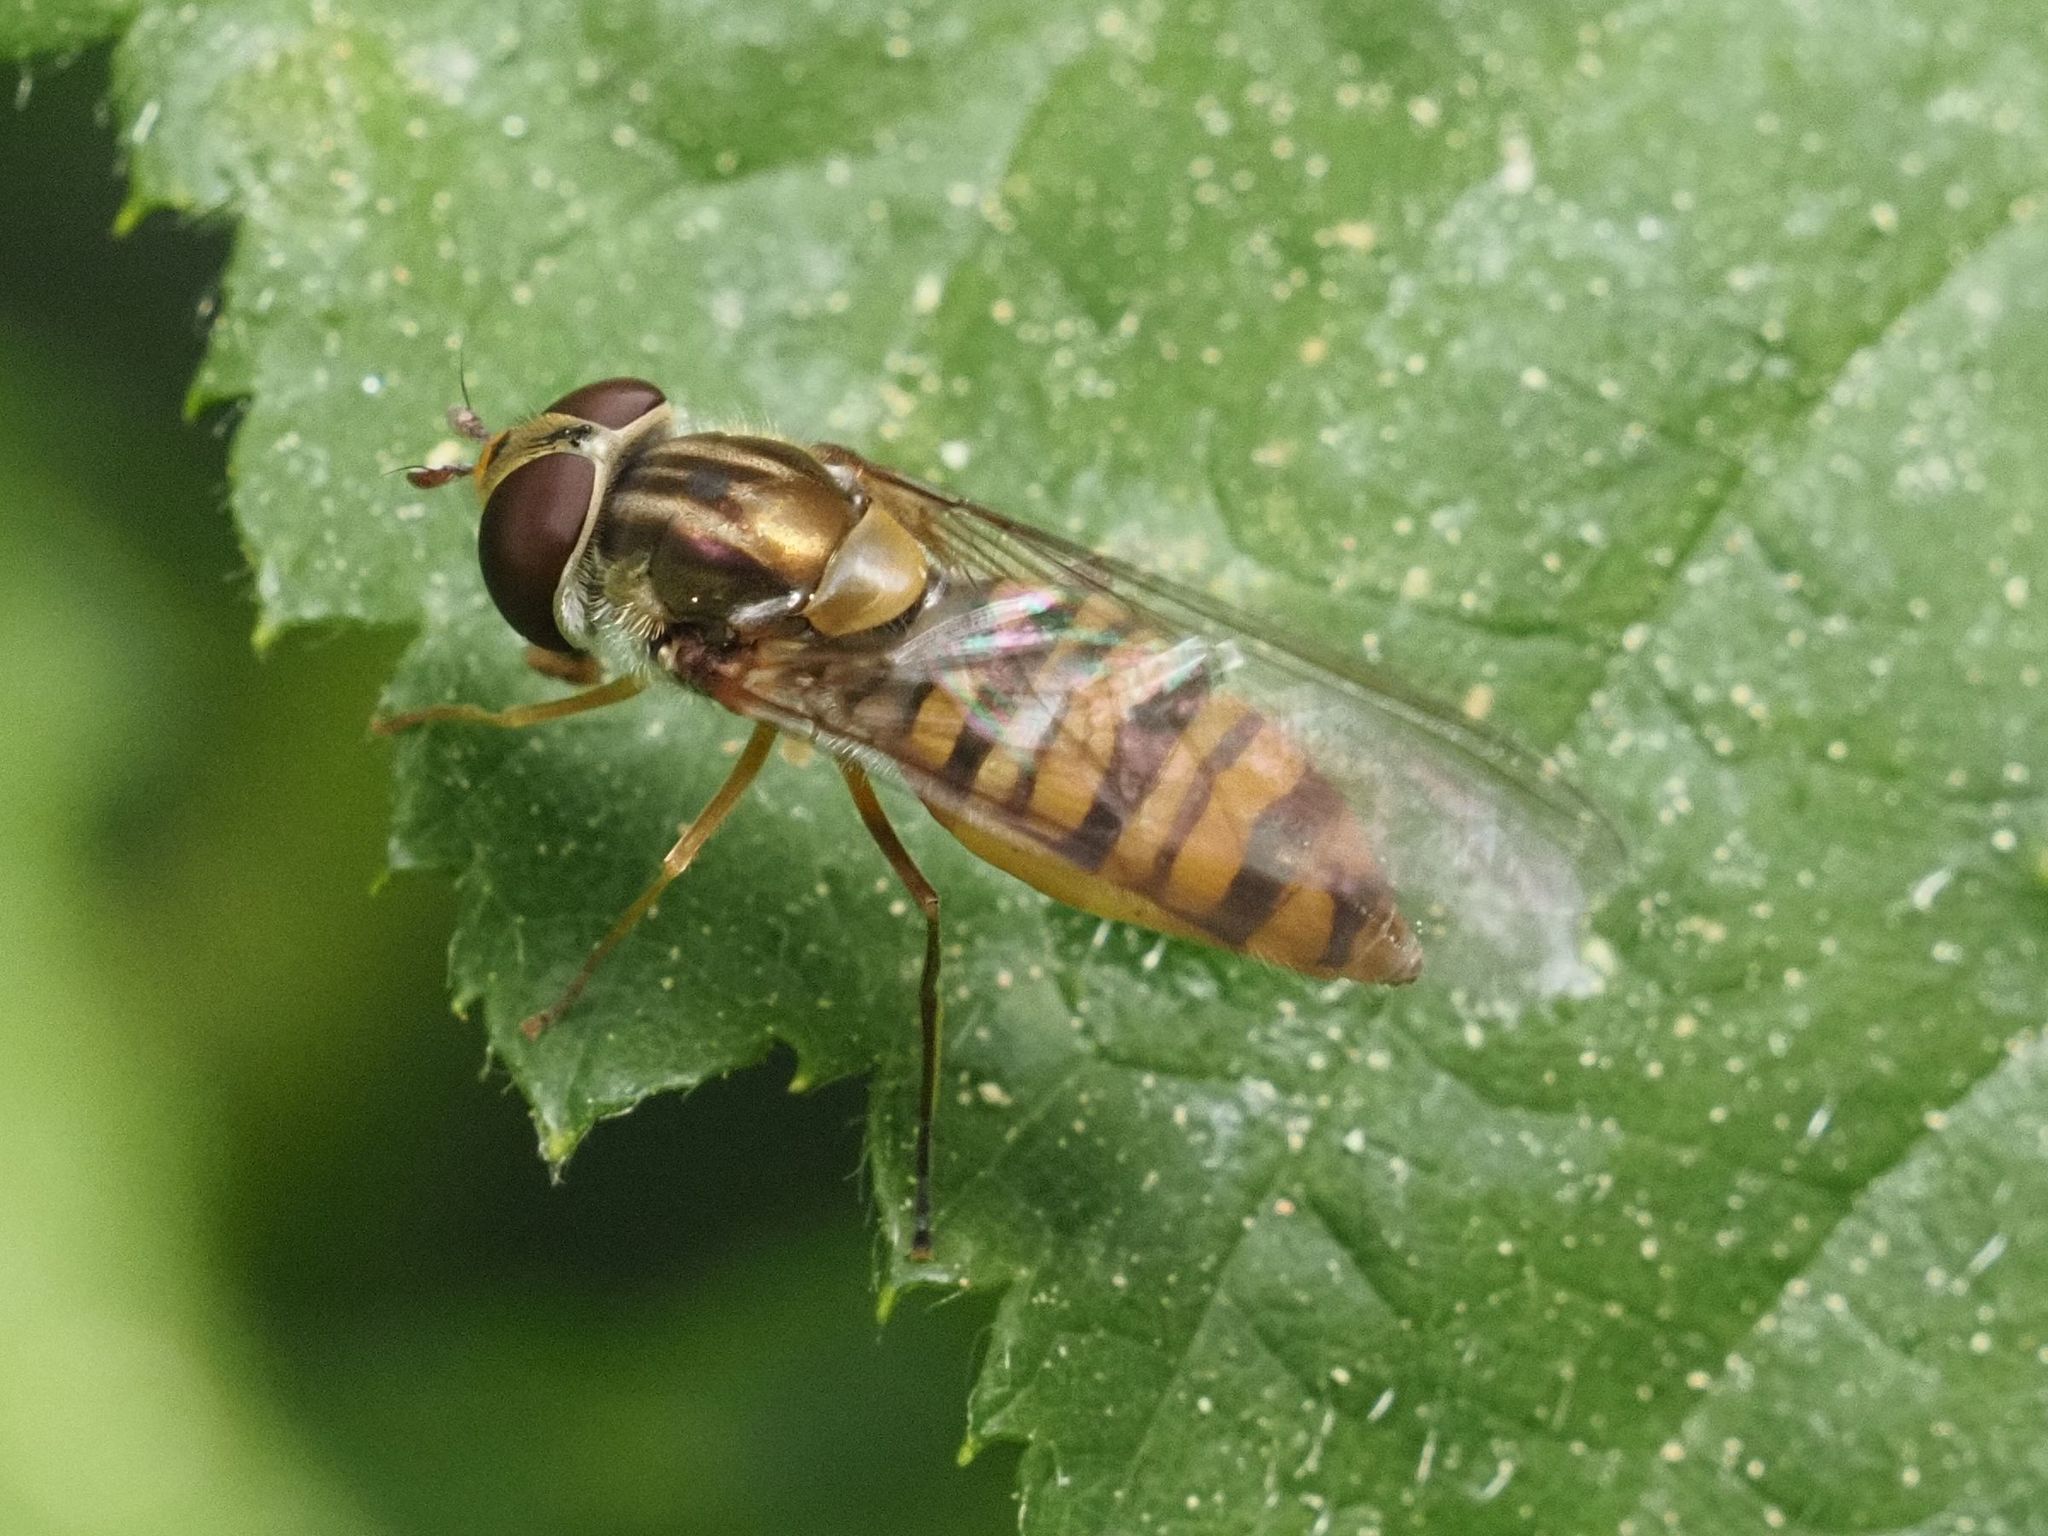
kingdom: Animalia
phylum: Arthropoda
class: Insecta
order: Diptera
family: Syrphidae
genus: Episyrphus
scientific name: Episyrphus balteatus
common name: Marmalade hoverfly
